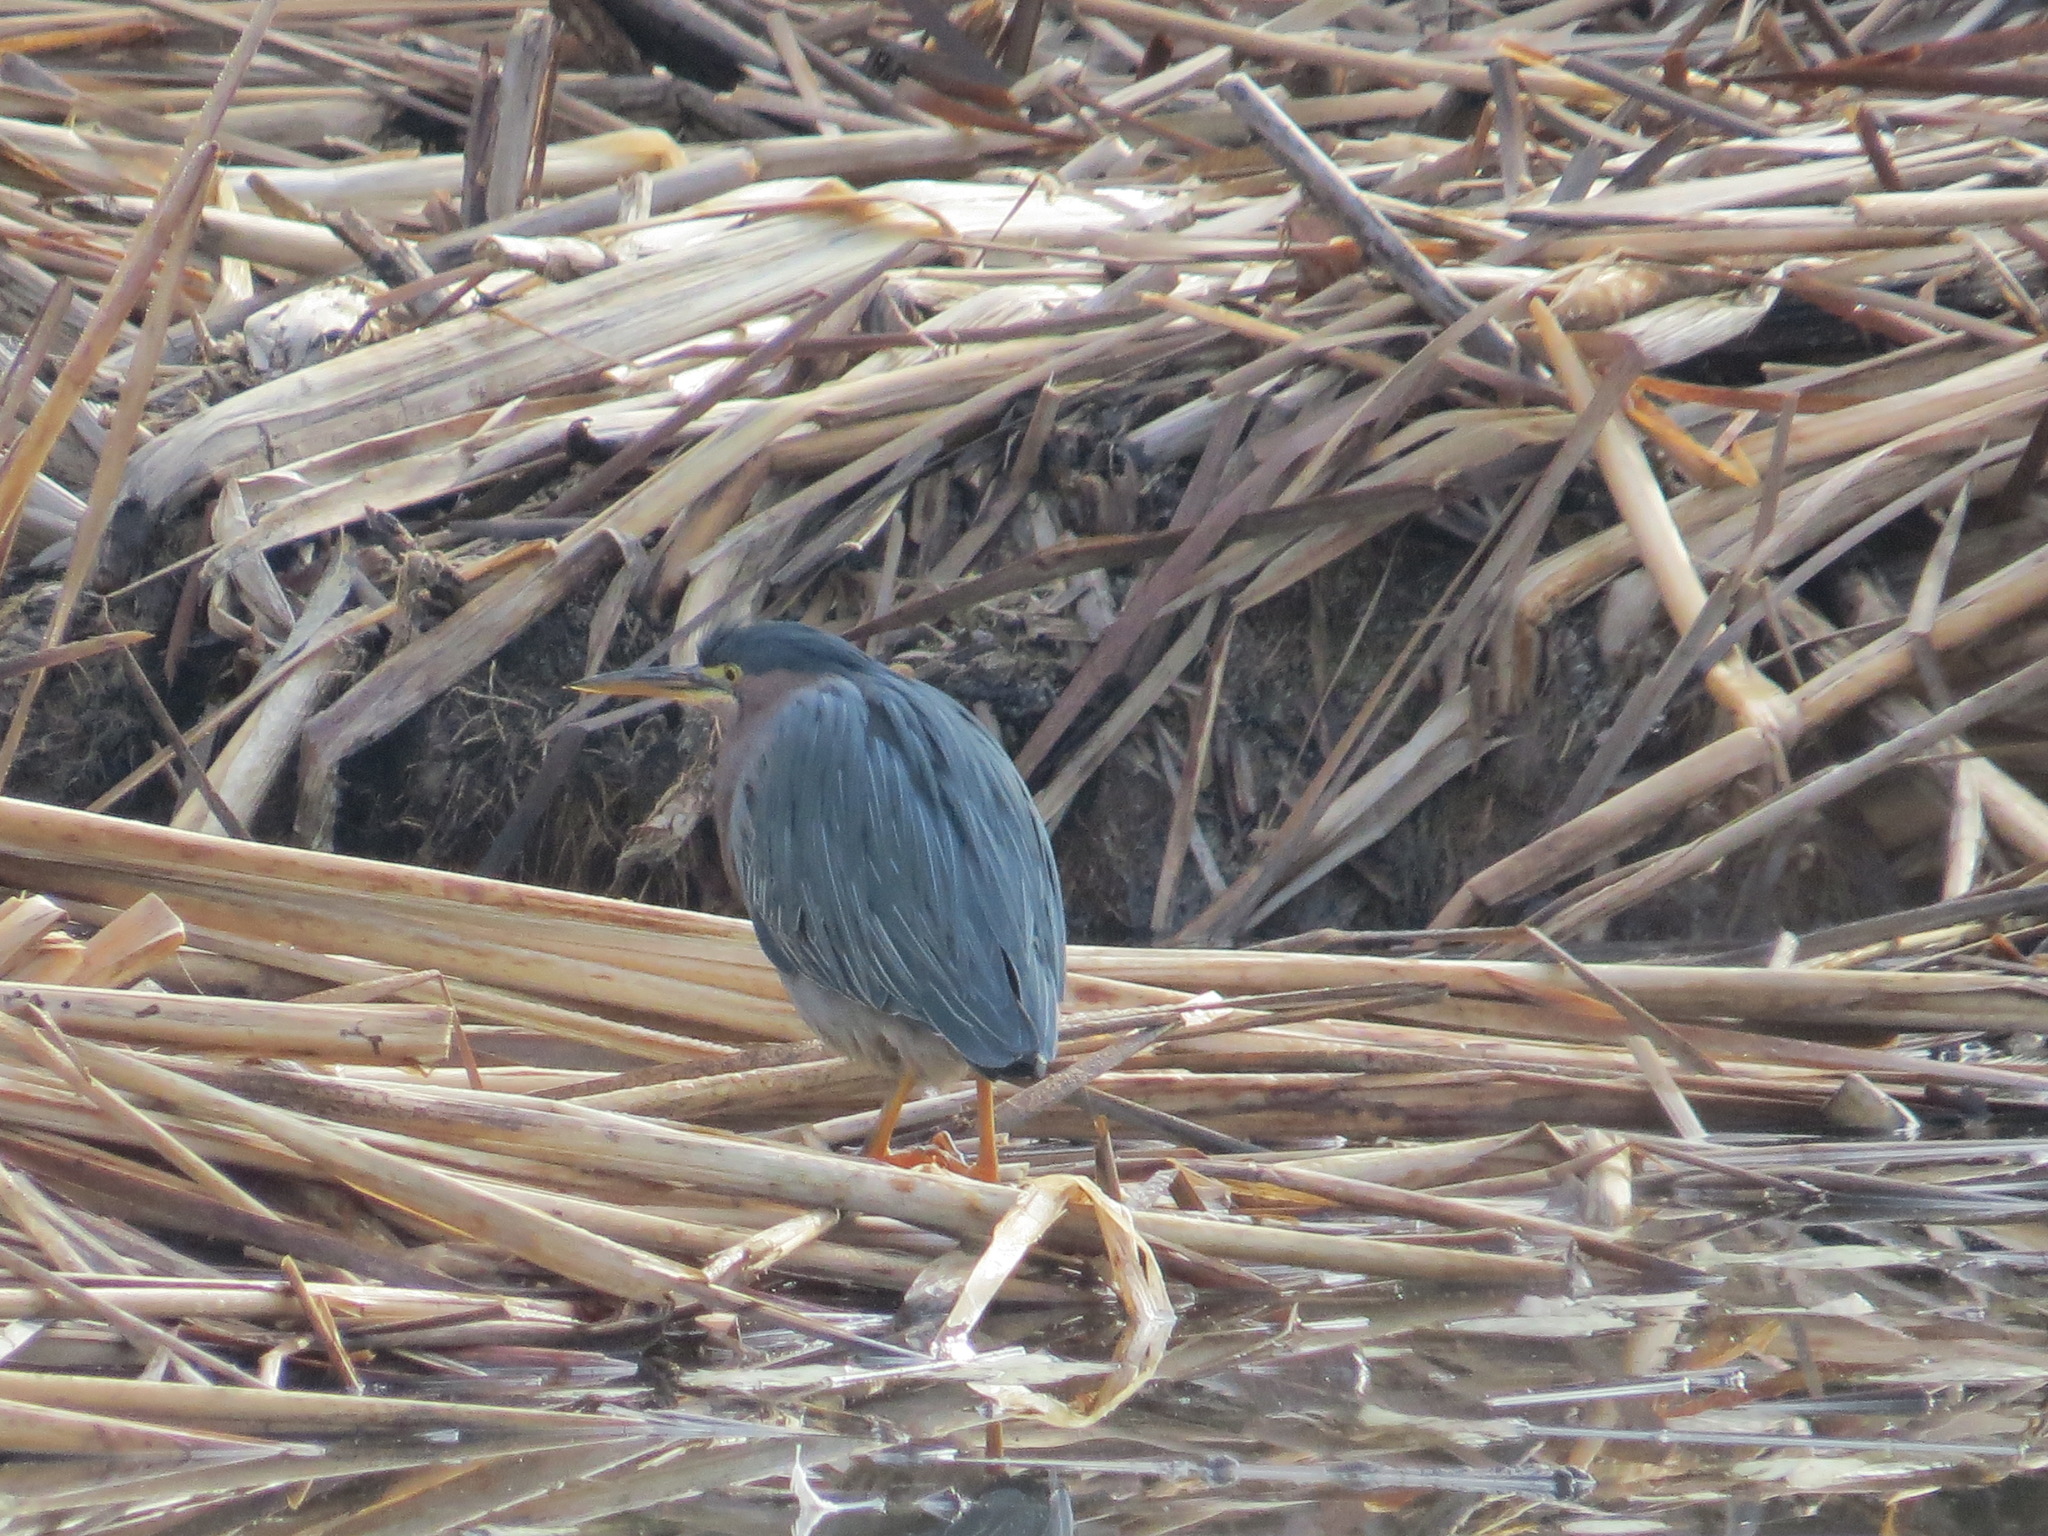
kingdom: Animalia
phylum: Chordata
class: Aves
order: Pelecaniformes
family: Ardeidae
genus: Butorides
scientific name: Butorides virescens
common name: Green heron
